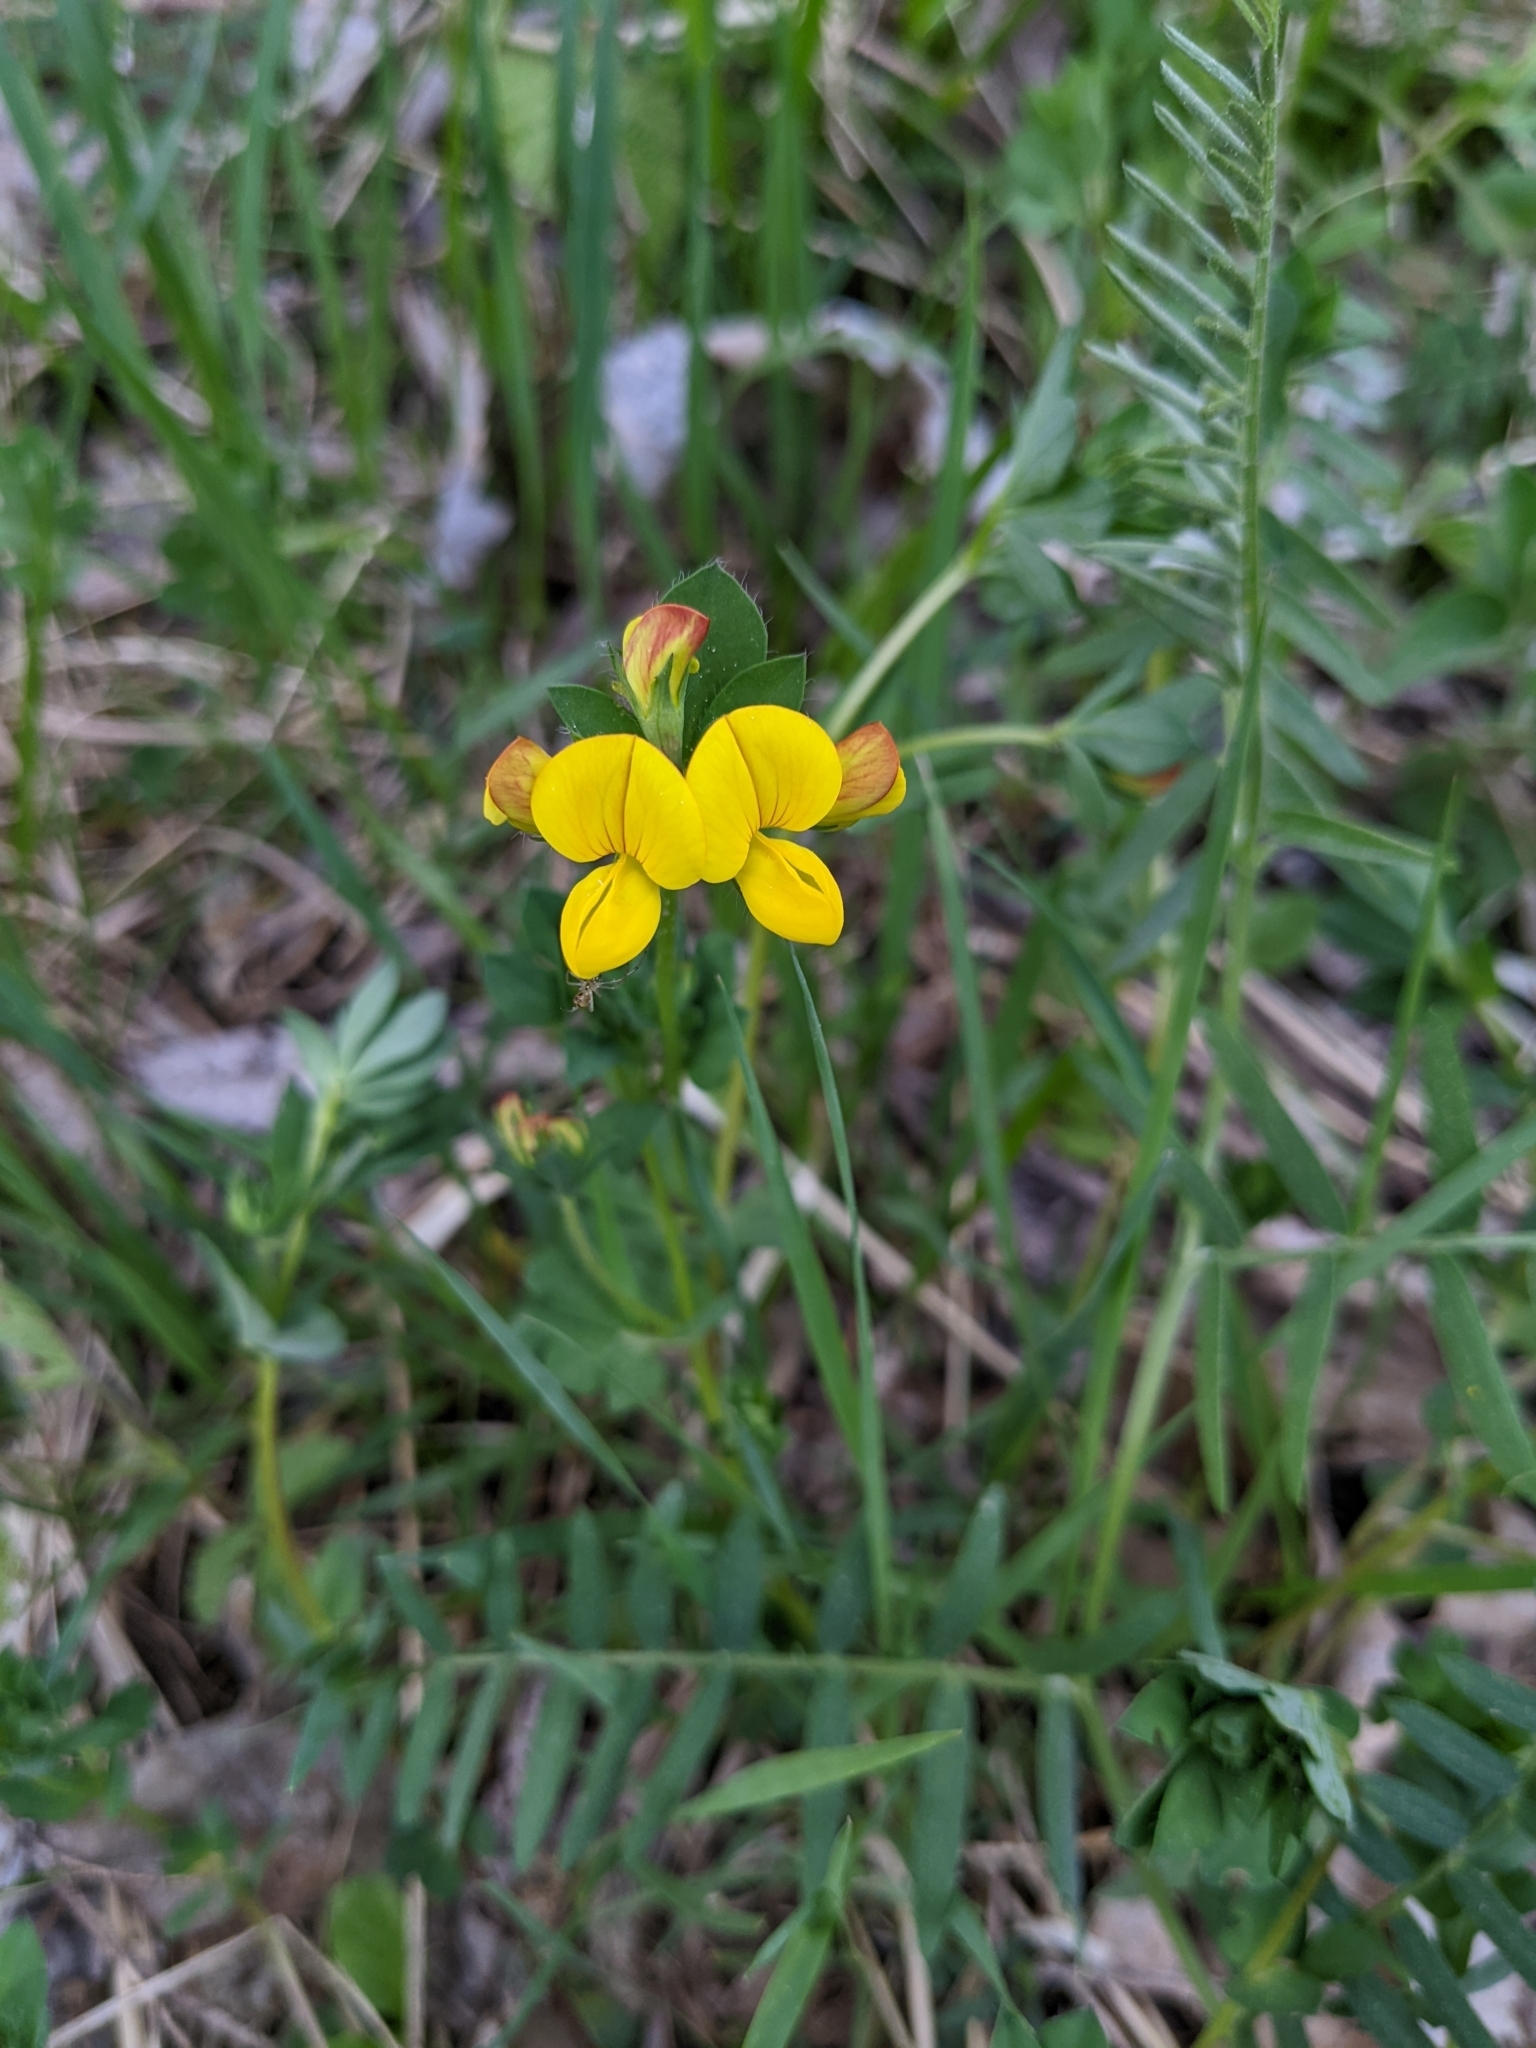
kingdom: Plantae
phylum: Tracheophyta
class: Magnoliopsida
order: Fabales
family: Fabaceae
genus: Lotus
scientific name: Lotus corniculatus
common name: Common bird's-foot-trefoil
